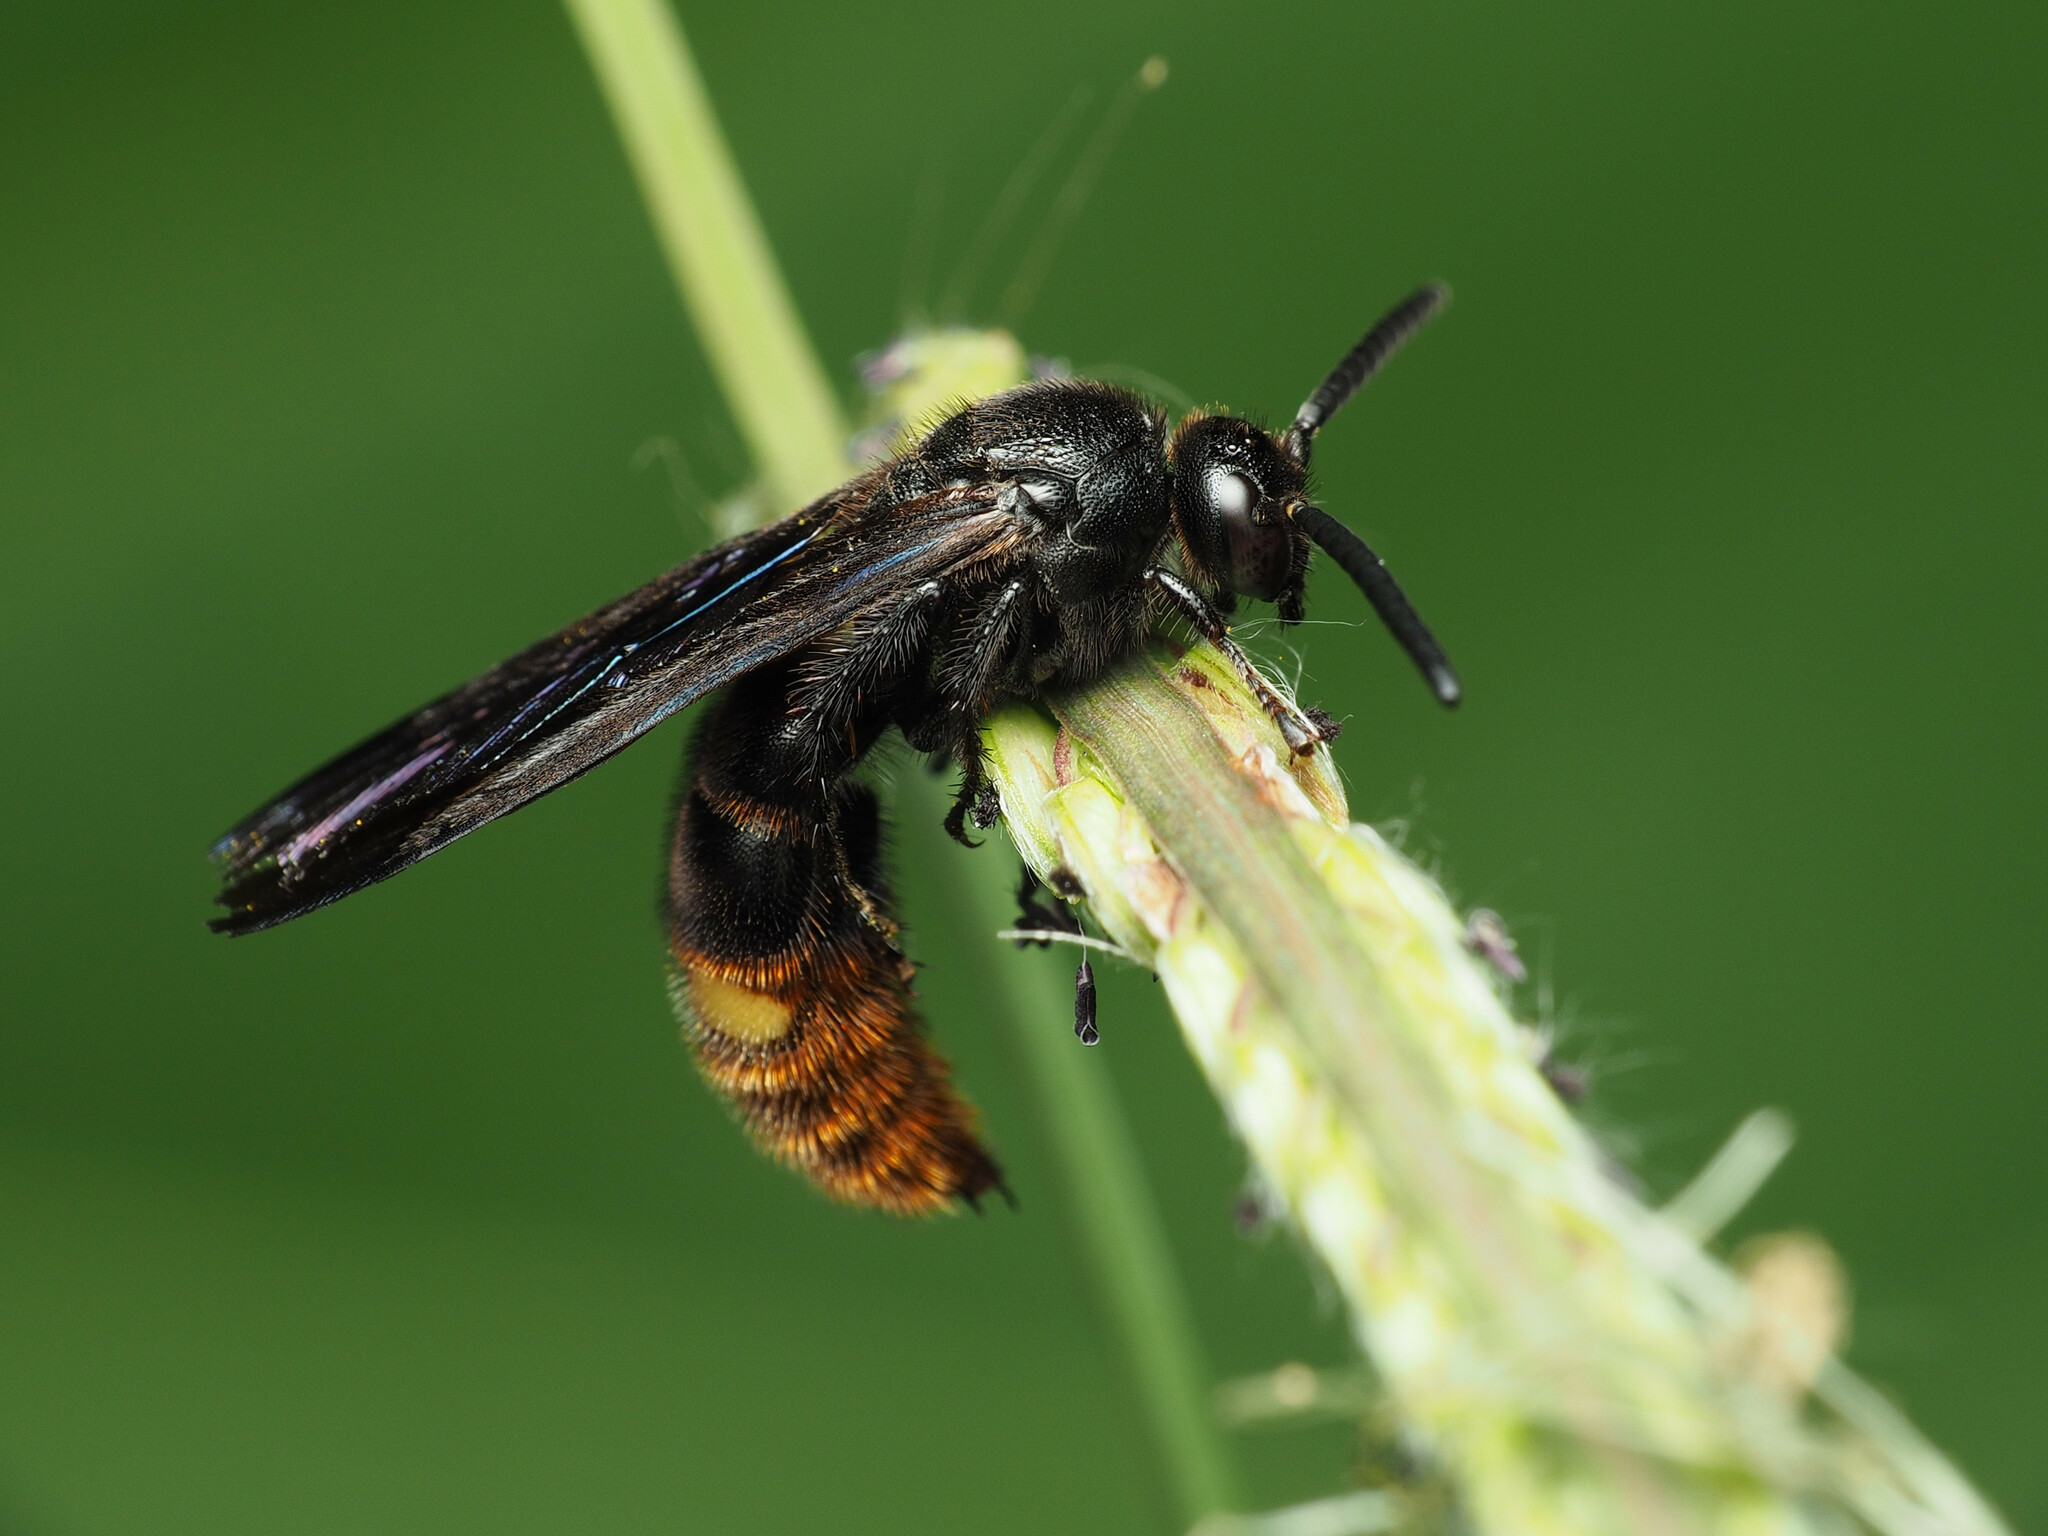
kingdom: Animalia
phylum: Arthropoda
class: Insecta
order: Hymenoptera
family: Scoliidae
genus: Scolia
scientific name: Scolia dubia
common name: Blue-winged scoliid wasp
